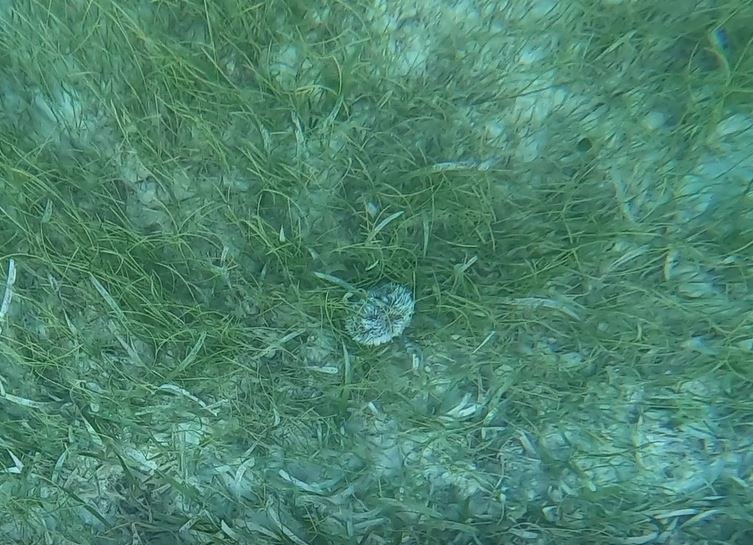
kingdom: Animalia
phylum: Echinodermata
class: Echinoidea
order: Camarodonta
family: Toxopneustidae
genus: Tripneustes
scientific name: Tripneustes ventricosus
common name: West indian sea egg
